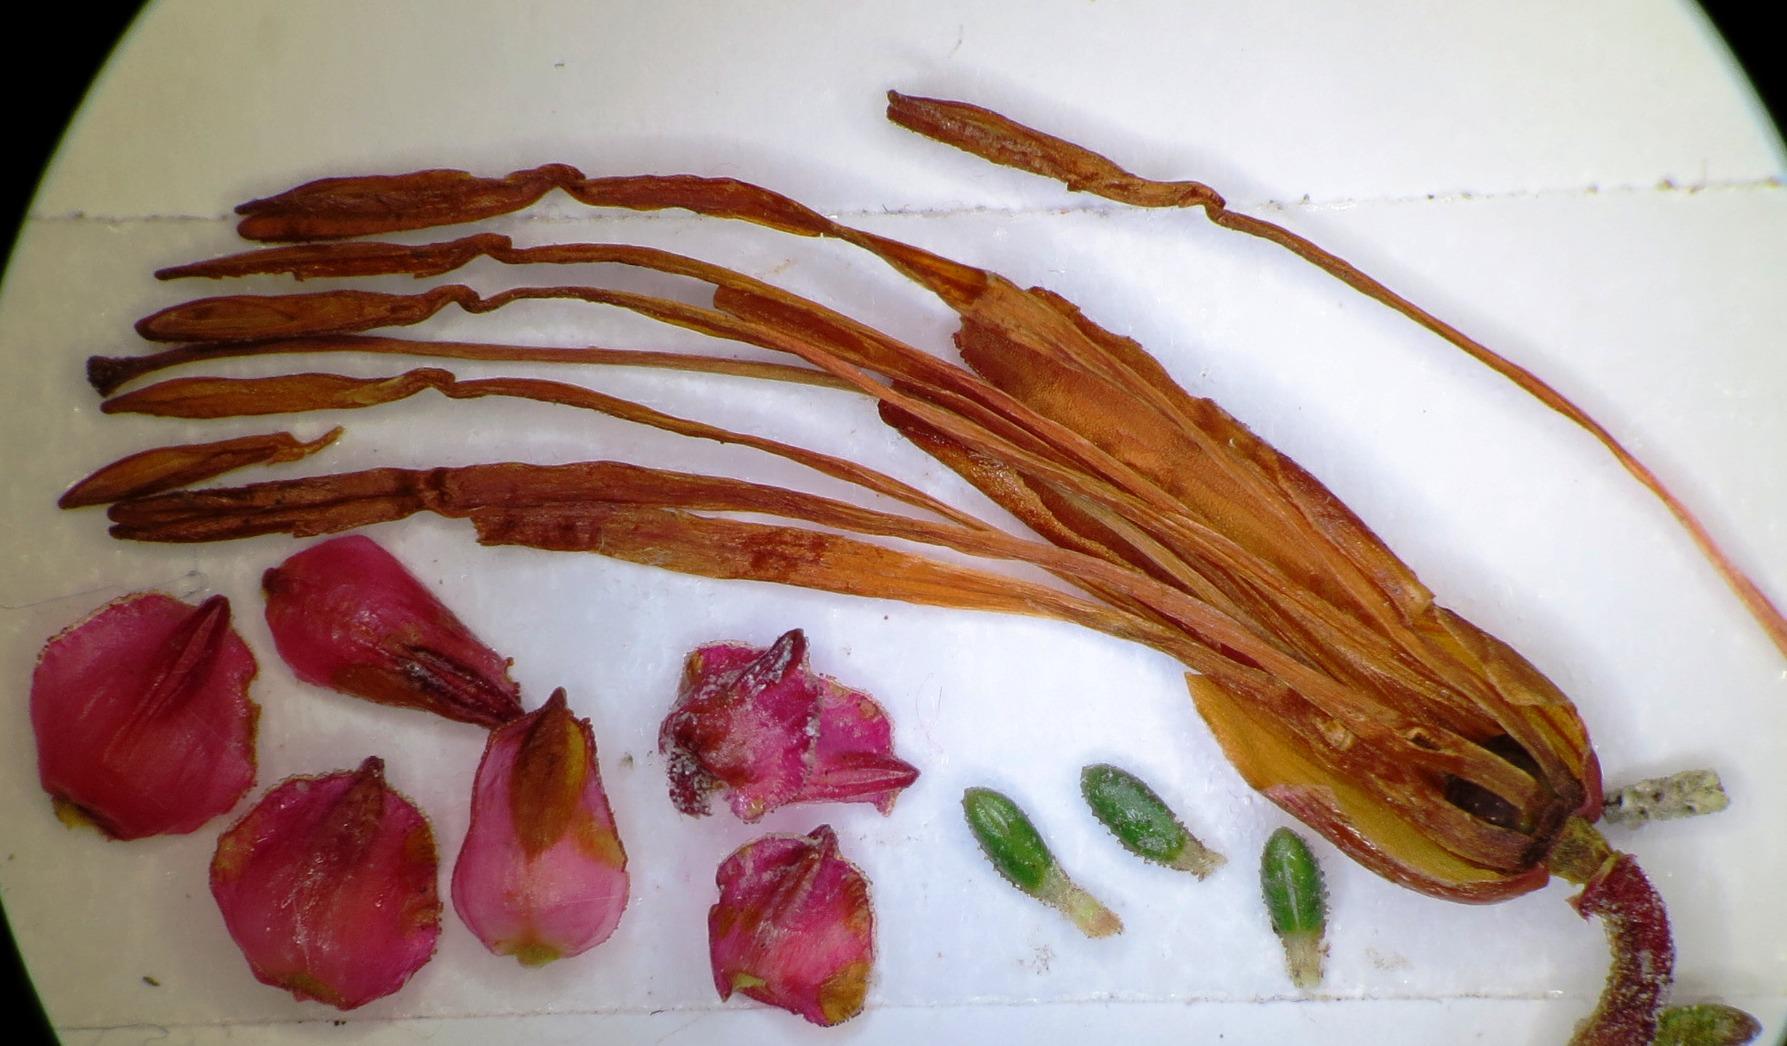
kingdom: Plantae
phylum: Tracheophyta
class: Magnoliopsida
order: Ericales
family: Ericaceae
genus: Erica
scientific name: Erica monadelphia
